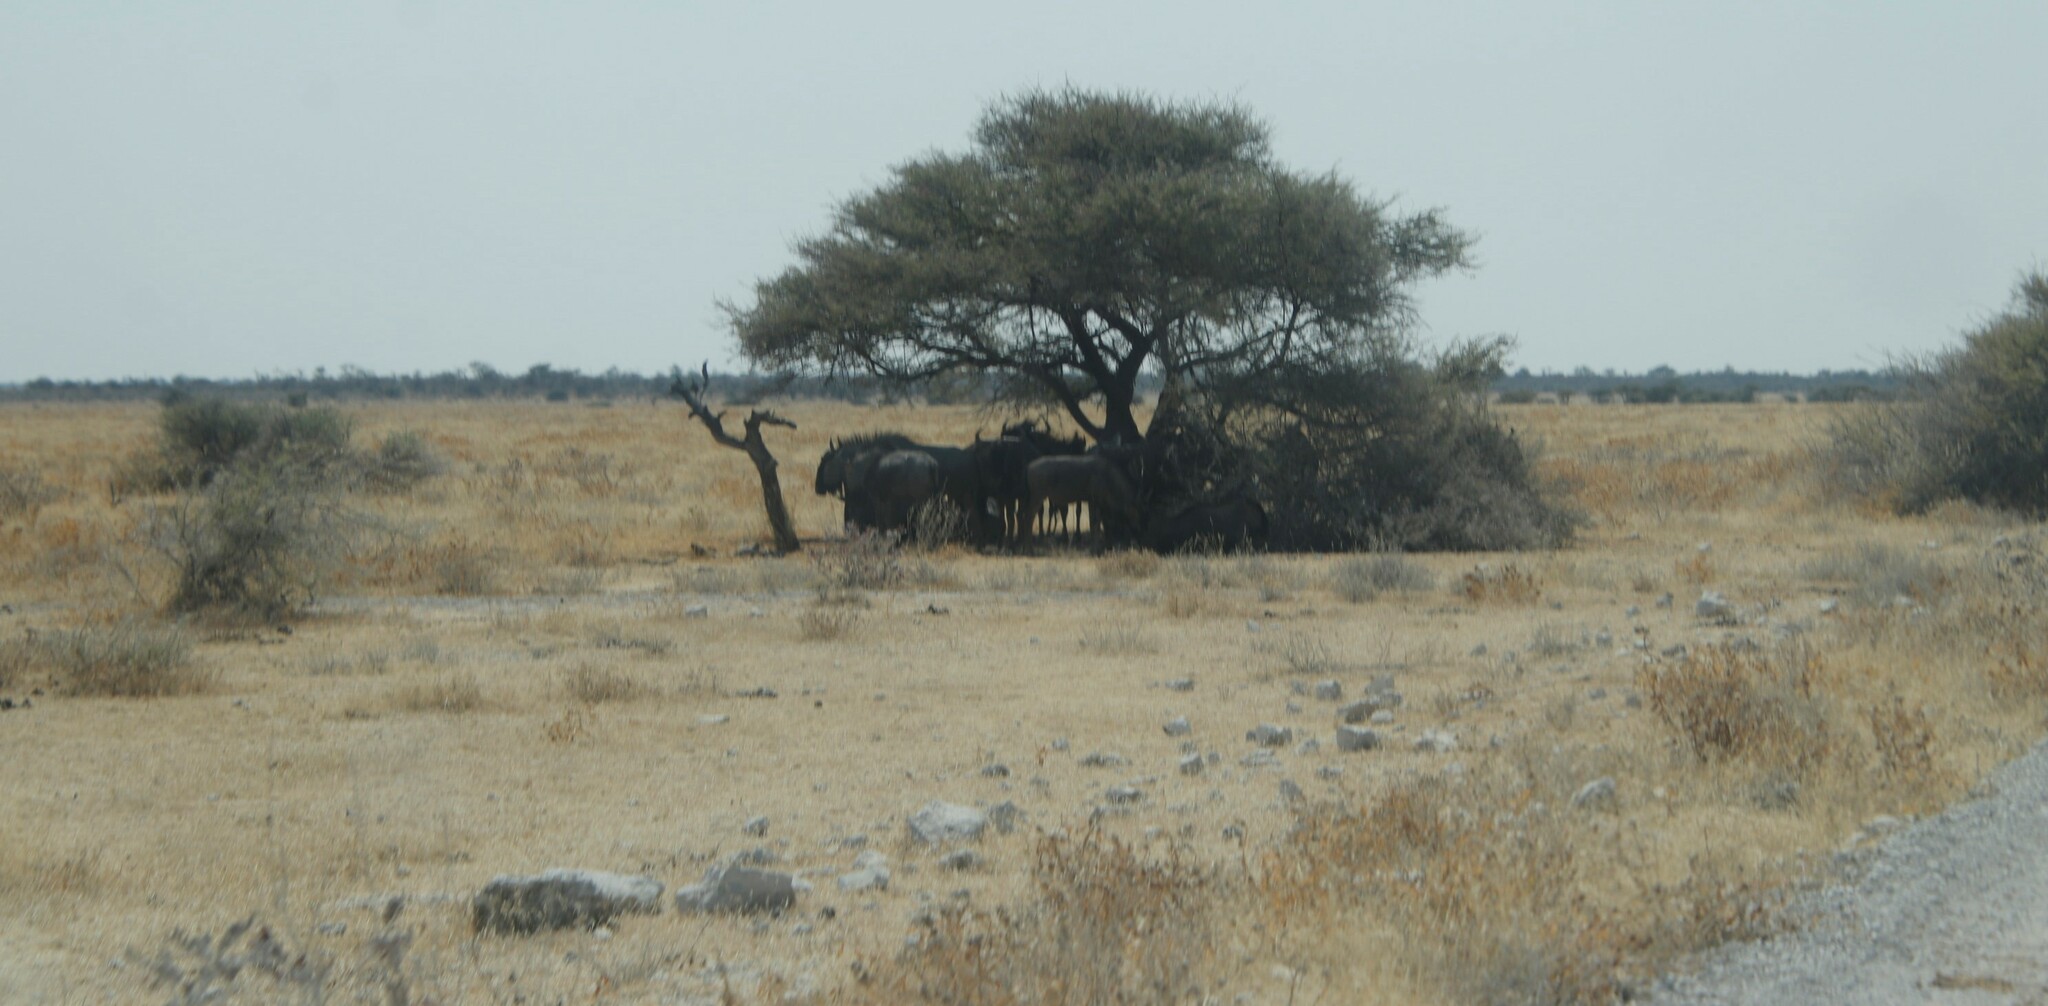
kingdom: Animalia
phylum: Chordata
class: Mammalia
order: Artiodactyla
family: Bovidae
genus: Connochaetes
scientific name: Connochaetes taurinus
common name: Blue wildebeest
